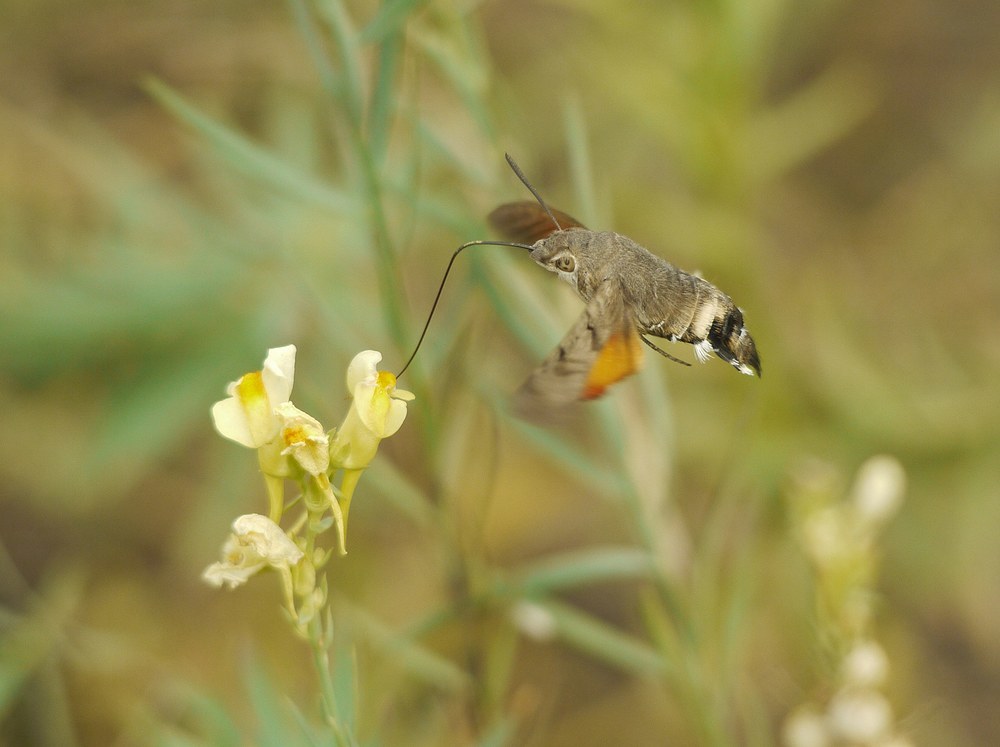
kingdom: Animalia
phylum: Arthropoda
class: Insecta
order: Lepidoptera
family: Sphingidae
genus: Macroglossum
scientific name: Macroglossum stellatarum
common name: Humming-bird hawk-moth
